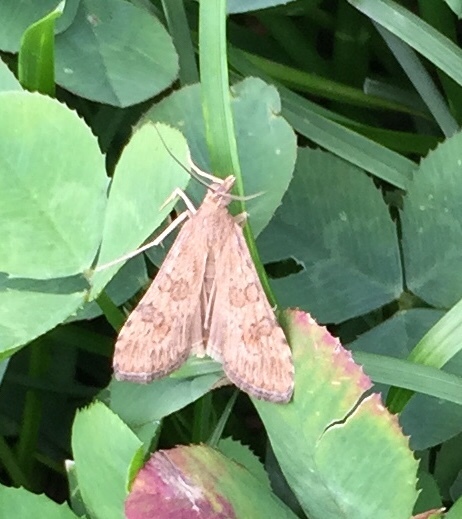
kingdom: Animalia
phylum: Arthropoda
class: Insecta
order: Lepidoptera
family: Crambidae
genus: Nomophila
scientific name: Nomophila nearctica
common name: American rush veneer
